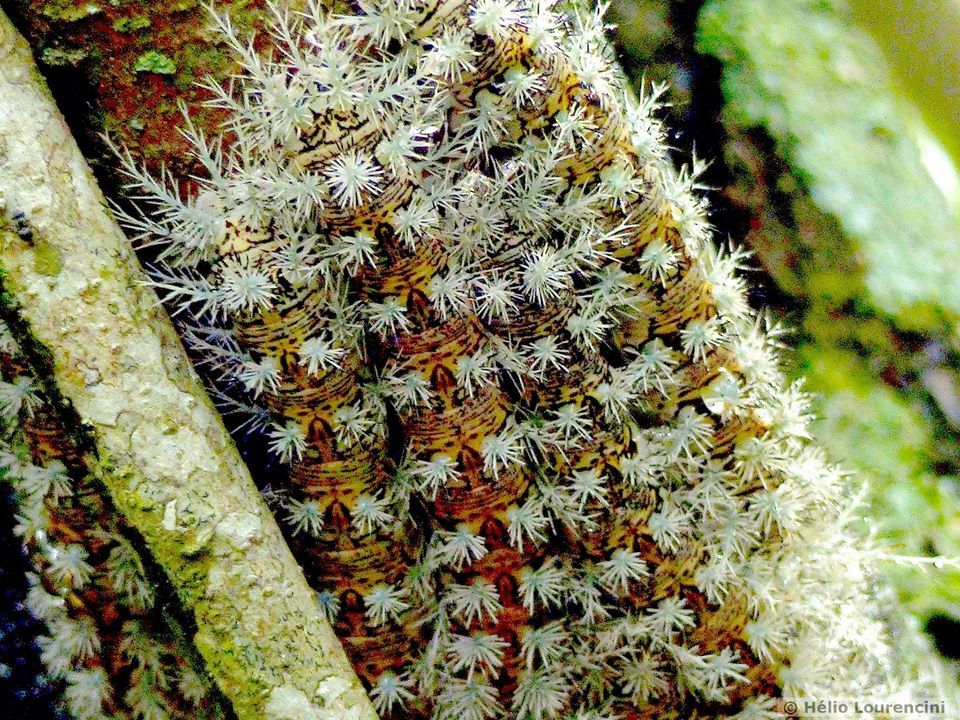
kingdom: Animalia
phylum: Arthropoda
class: Insecta
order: Lepidoptera
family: Saturniidae
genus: Dirphia
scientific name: Dirphia avia
